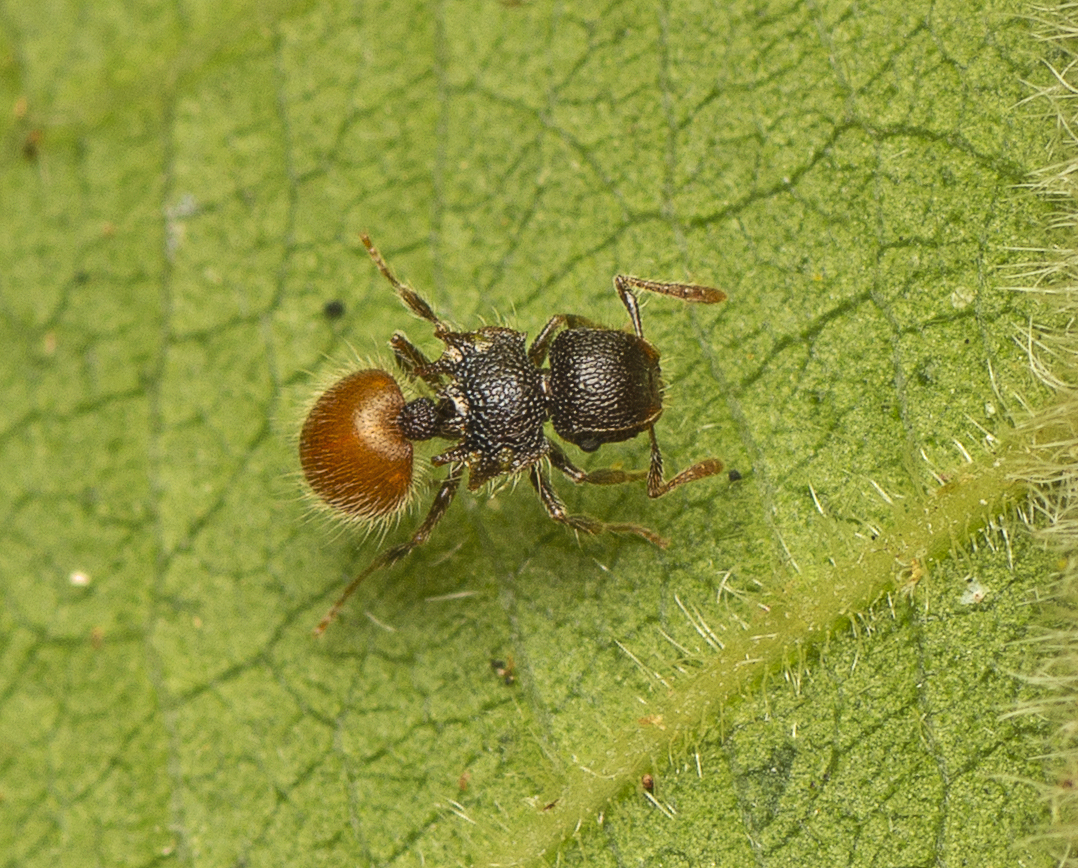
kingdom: Animalia
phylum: Arthropoda
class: Insecta
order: Hymenoptera
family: Formicidae
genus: Meranoplus
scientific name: Meranoplus hirsutus
